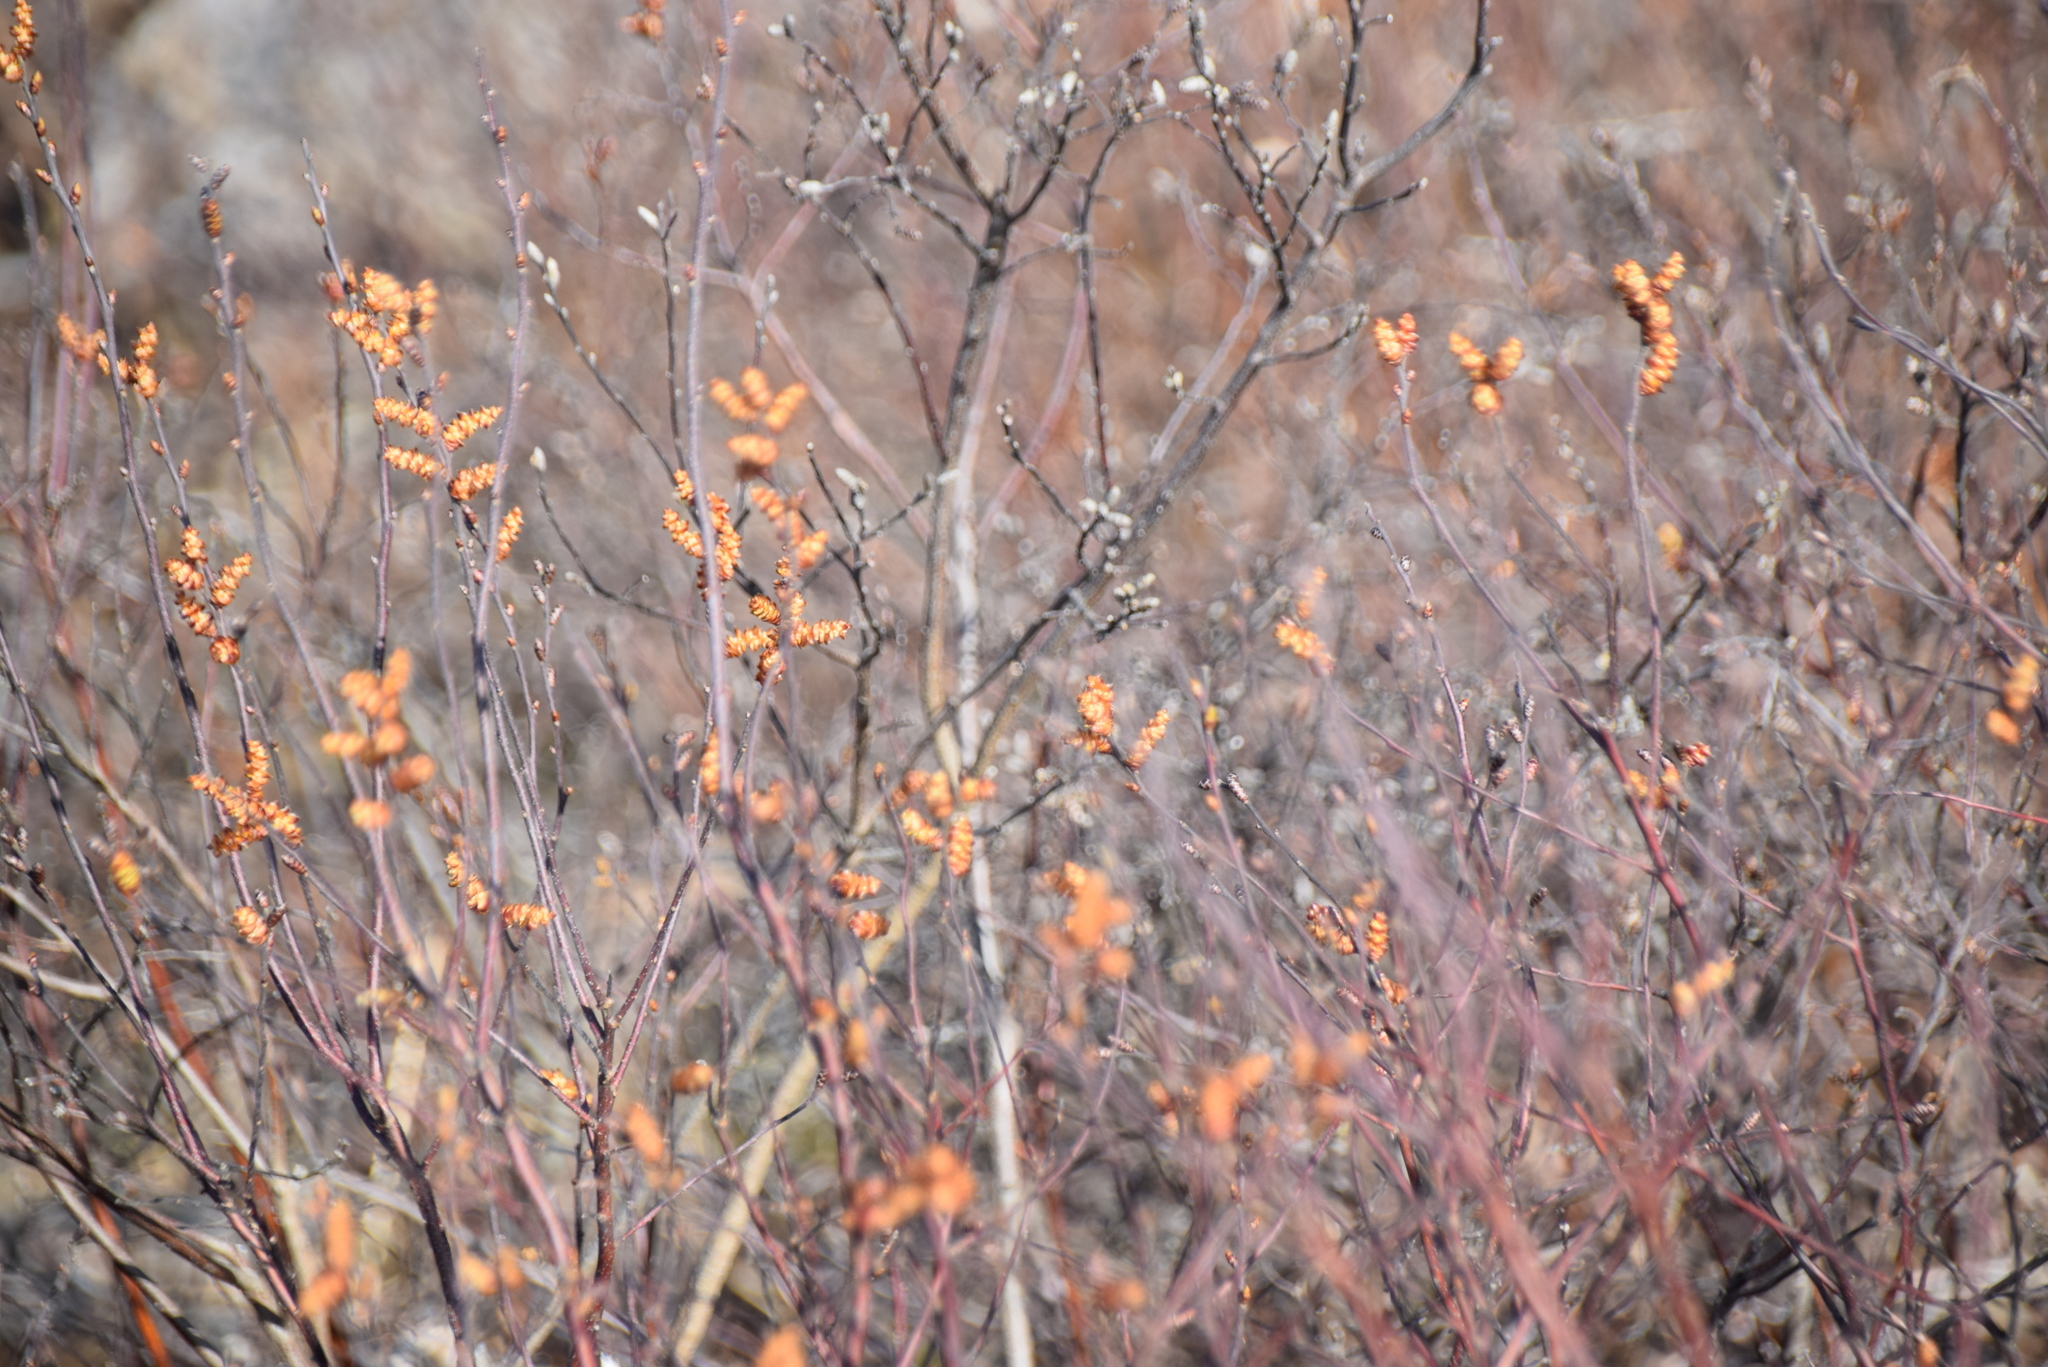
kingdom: Plantae
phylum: Tracheophyta
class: Magnoliopsida
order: Fagales
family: Myricaceae
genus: Myrica
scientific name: Myrica gale
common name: Sweet gale
